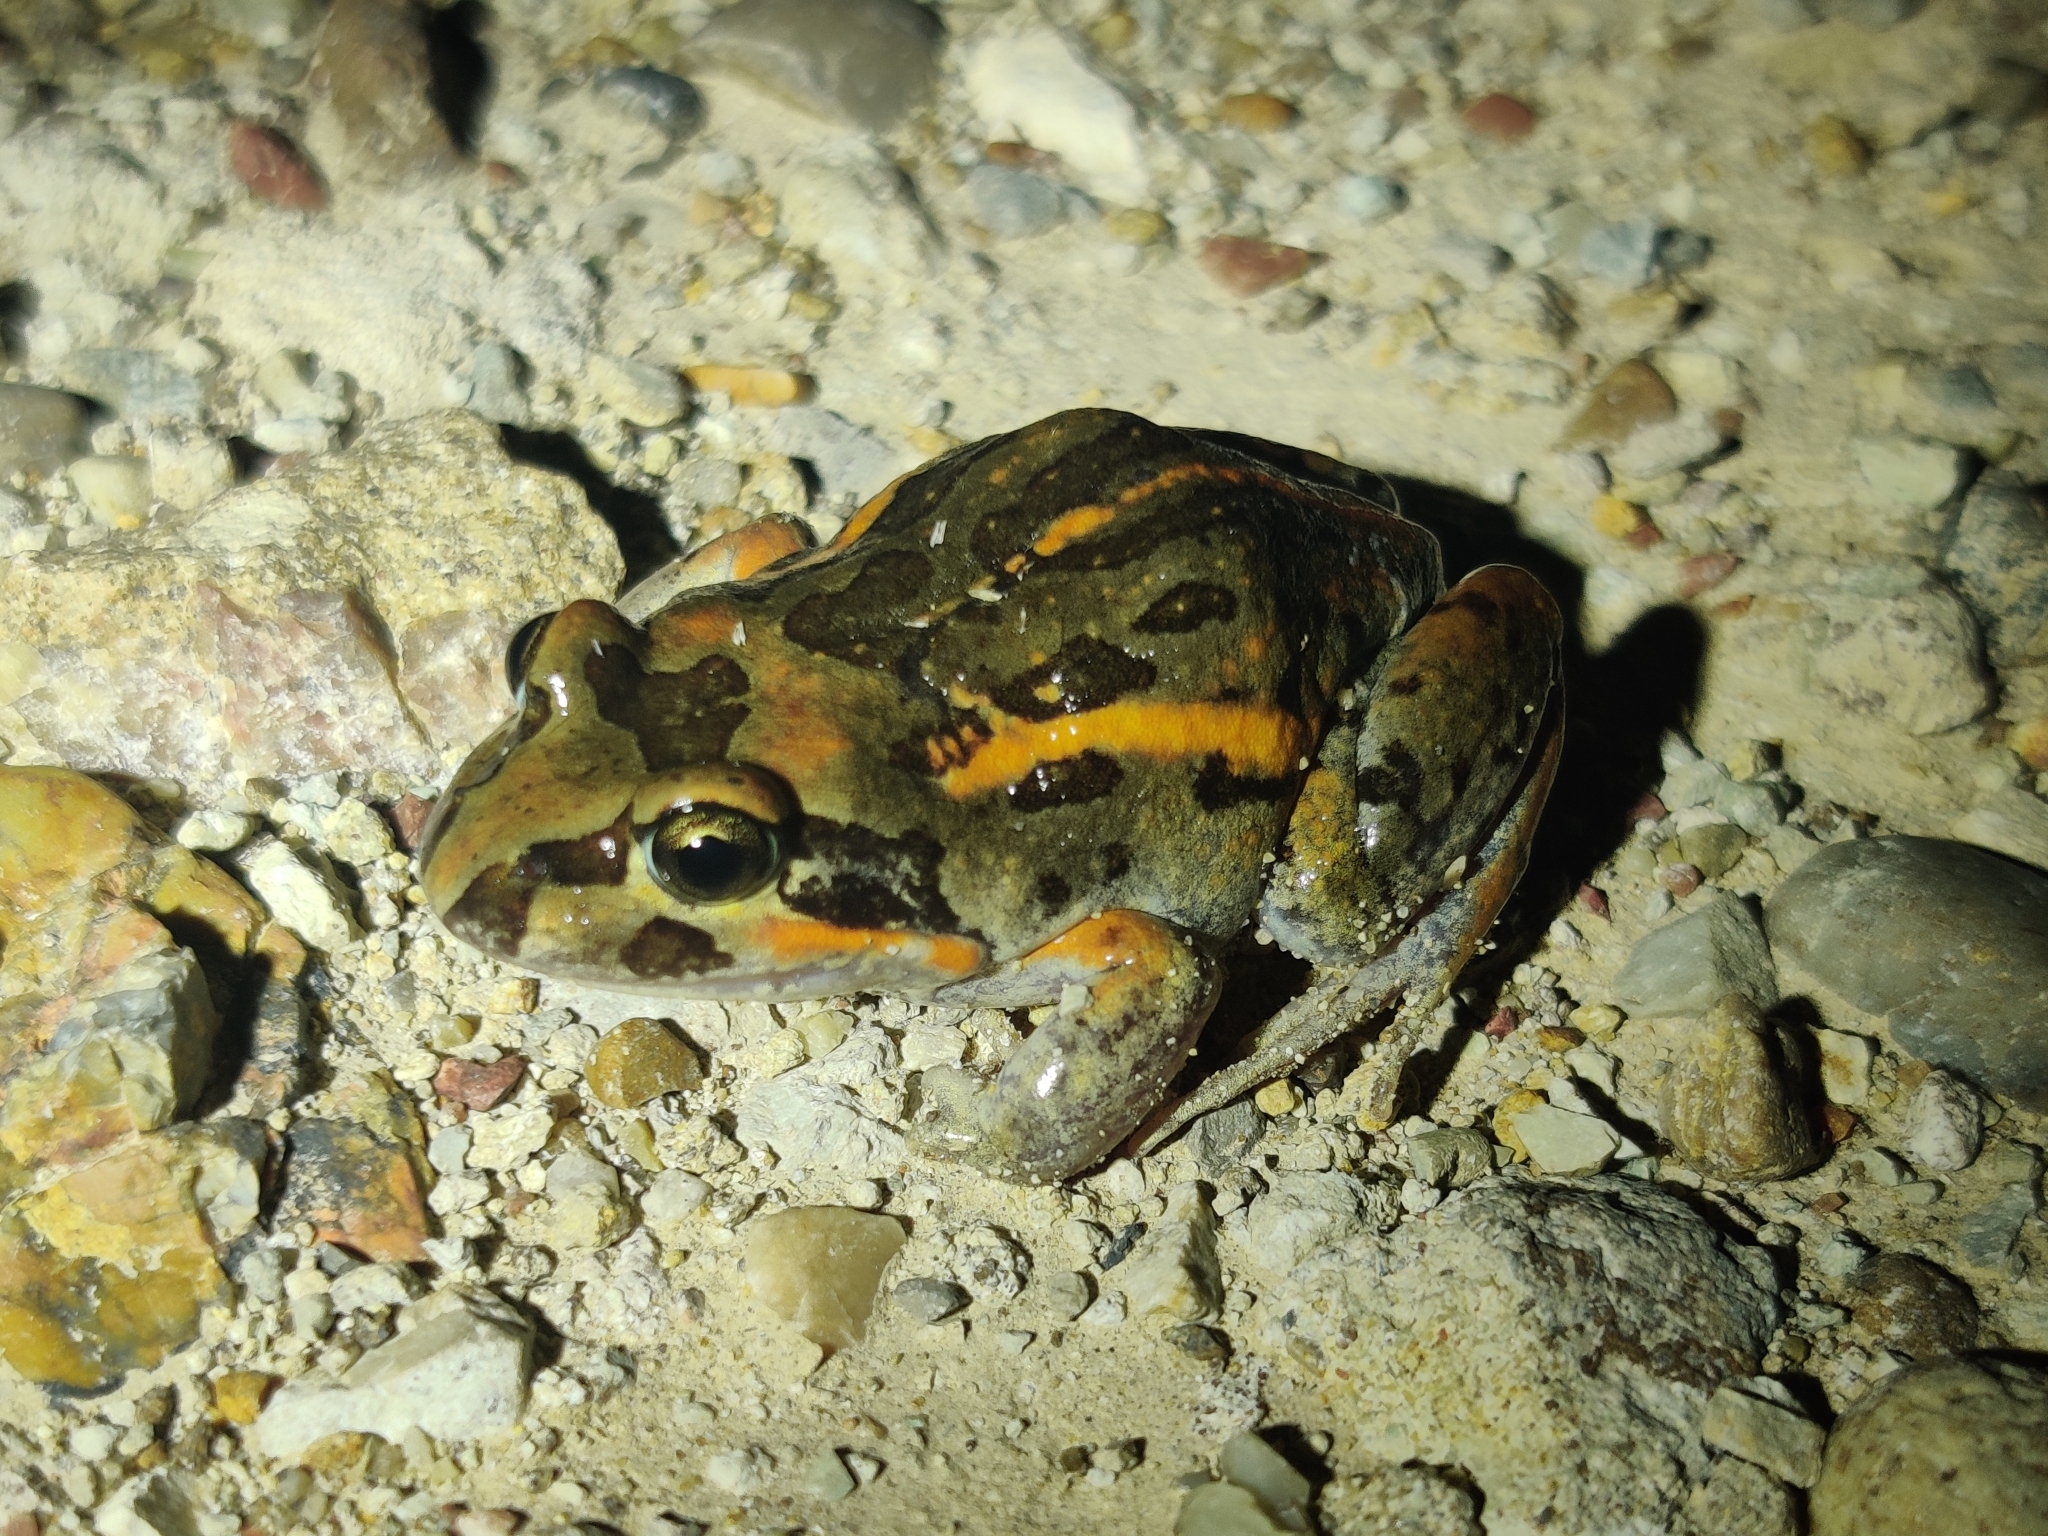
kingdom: Animalia
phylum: Chordata
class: Amphibia
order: Anura
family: Limnodynastidae
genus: Limnodynastes
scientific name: Limnodynastes salmini
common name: Salmon-striped frog
